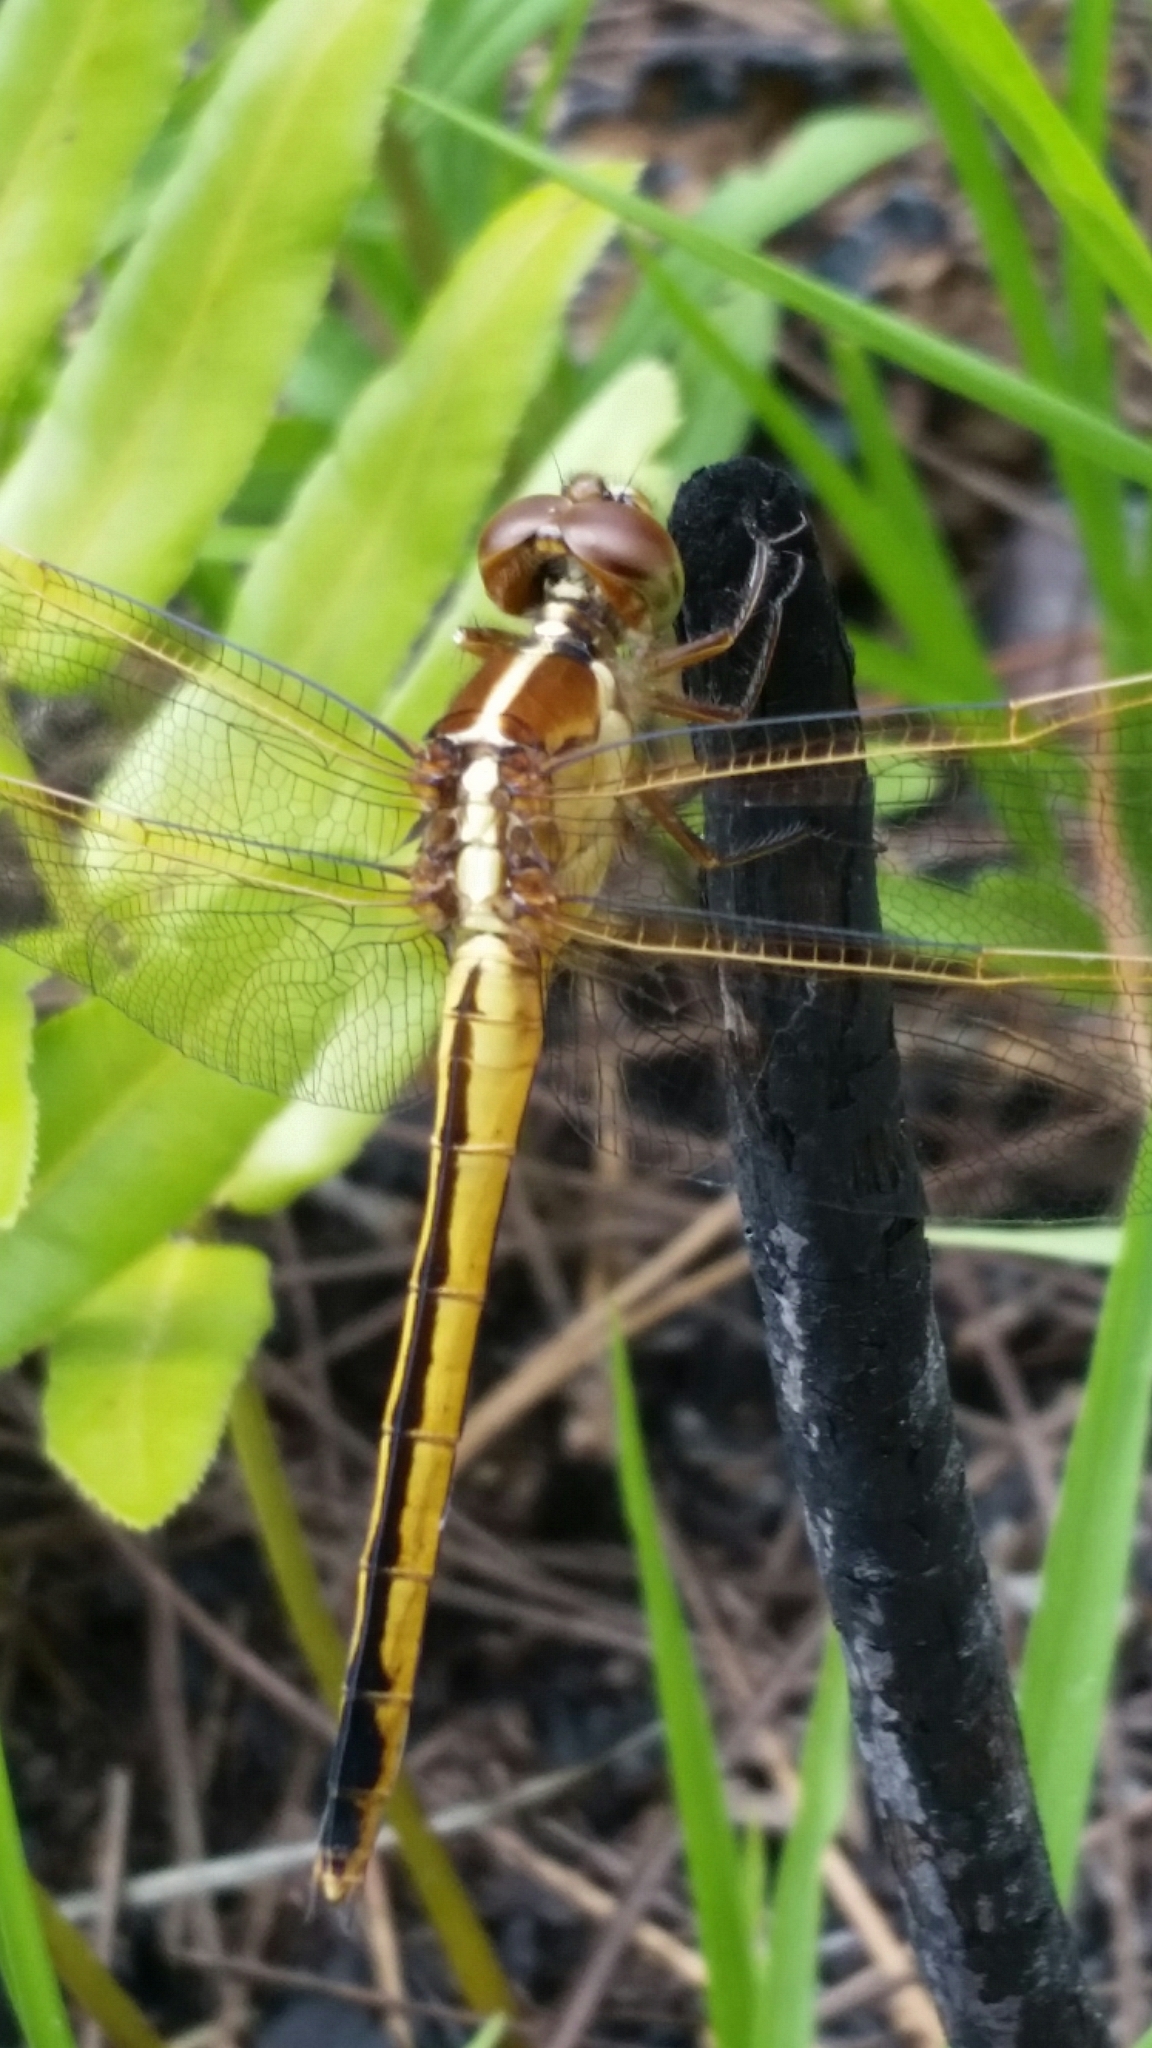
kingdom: Animalia
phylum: Arthropoda
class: Insecta
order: Odonata
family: Libellulidae
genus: Libellula
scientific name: Libellula needhami
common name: Needham's skimmer
